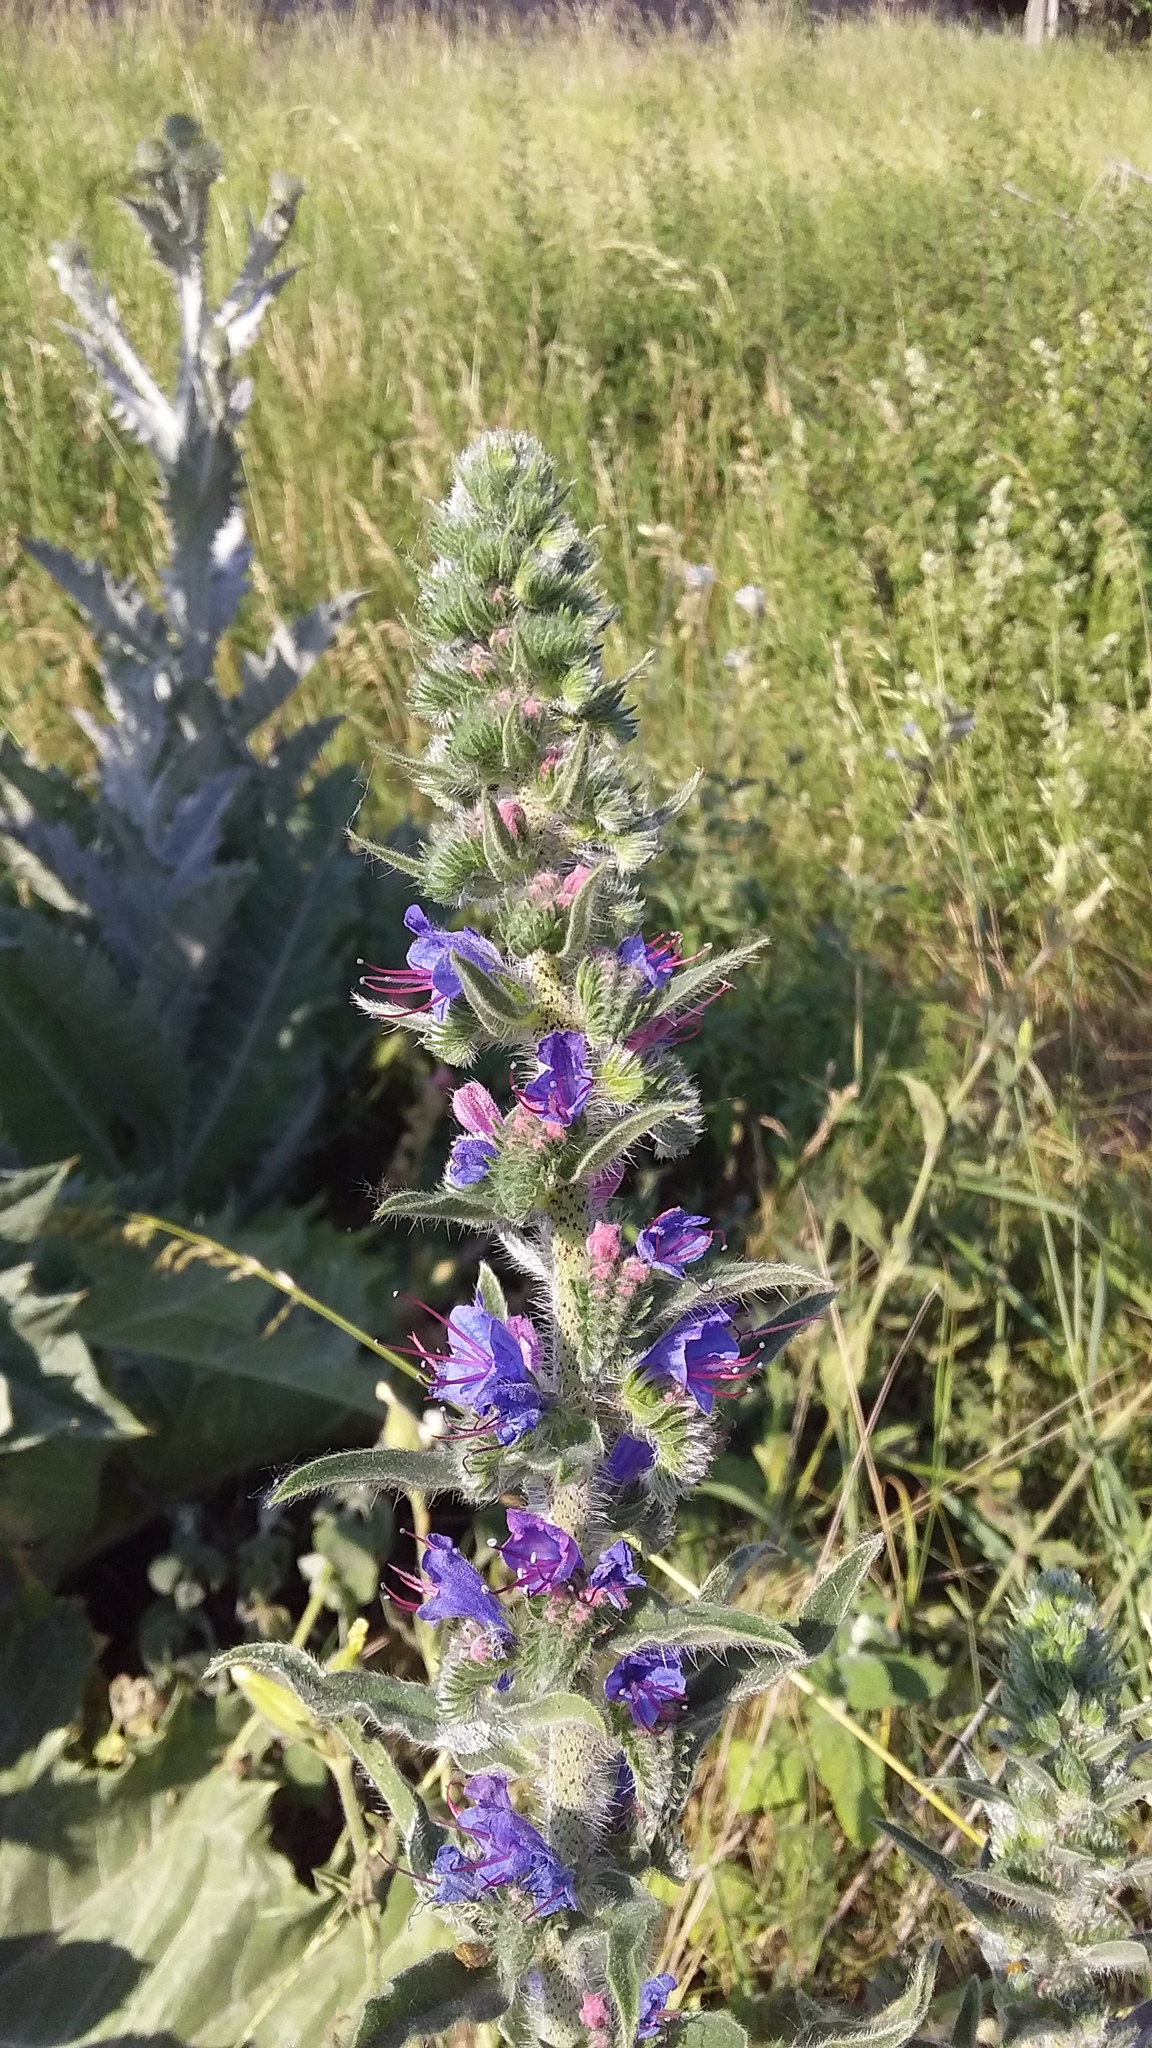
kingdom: Plantae
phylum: Tracheophyta
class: Magnoliopsida
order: Boraginales
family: Boraginaceae
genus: Echium
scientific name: Echium vulgare
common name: Common viper's bugloss
